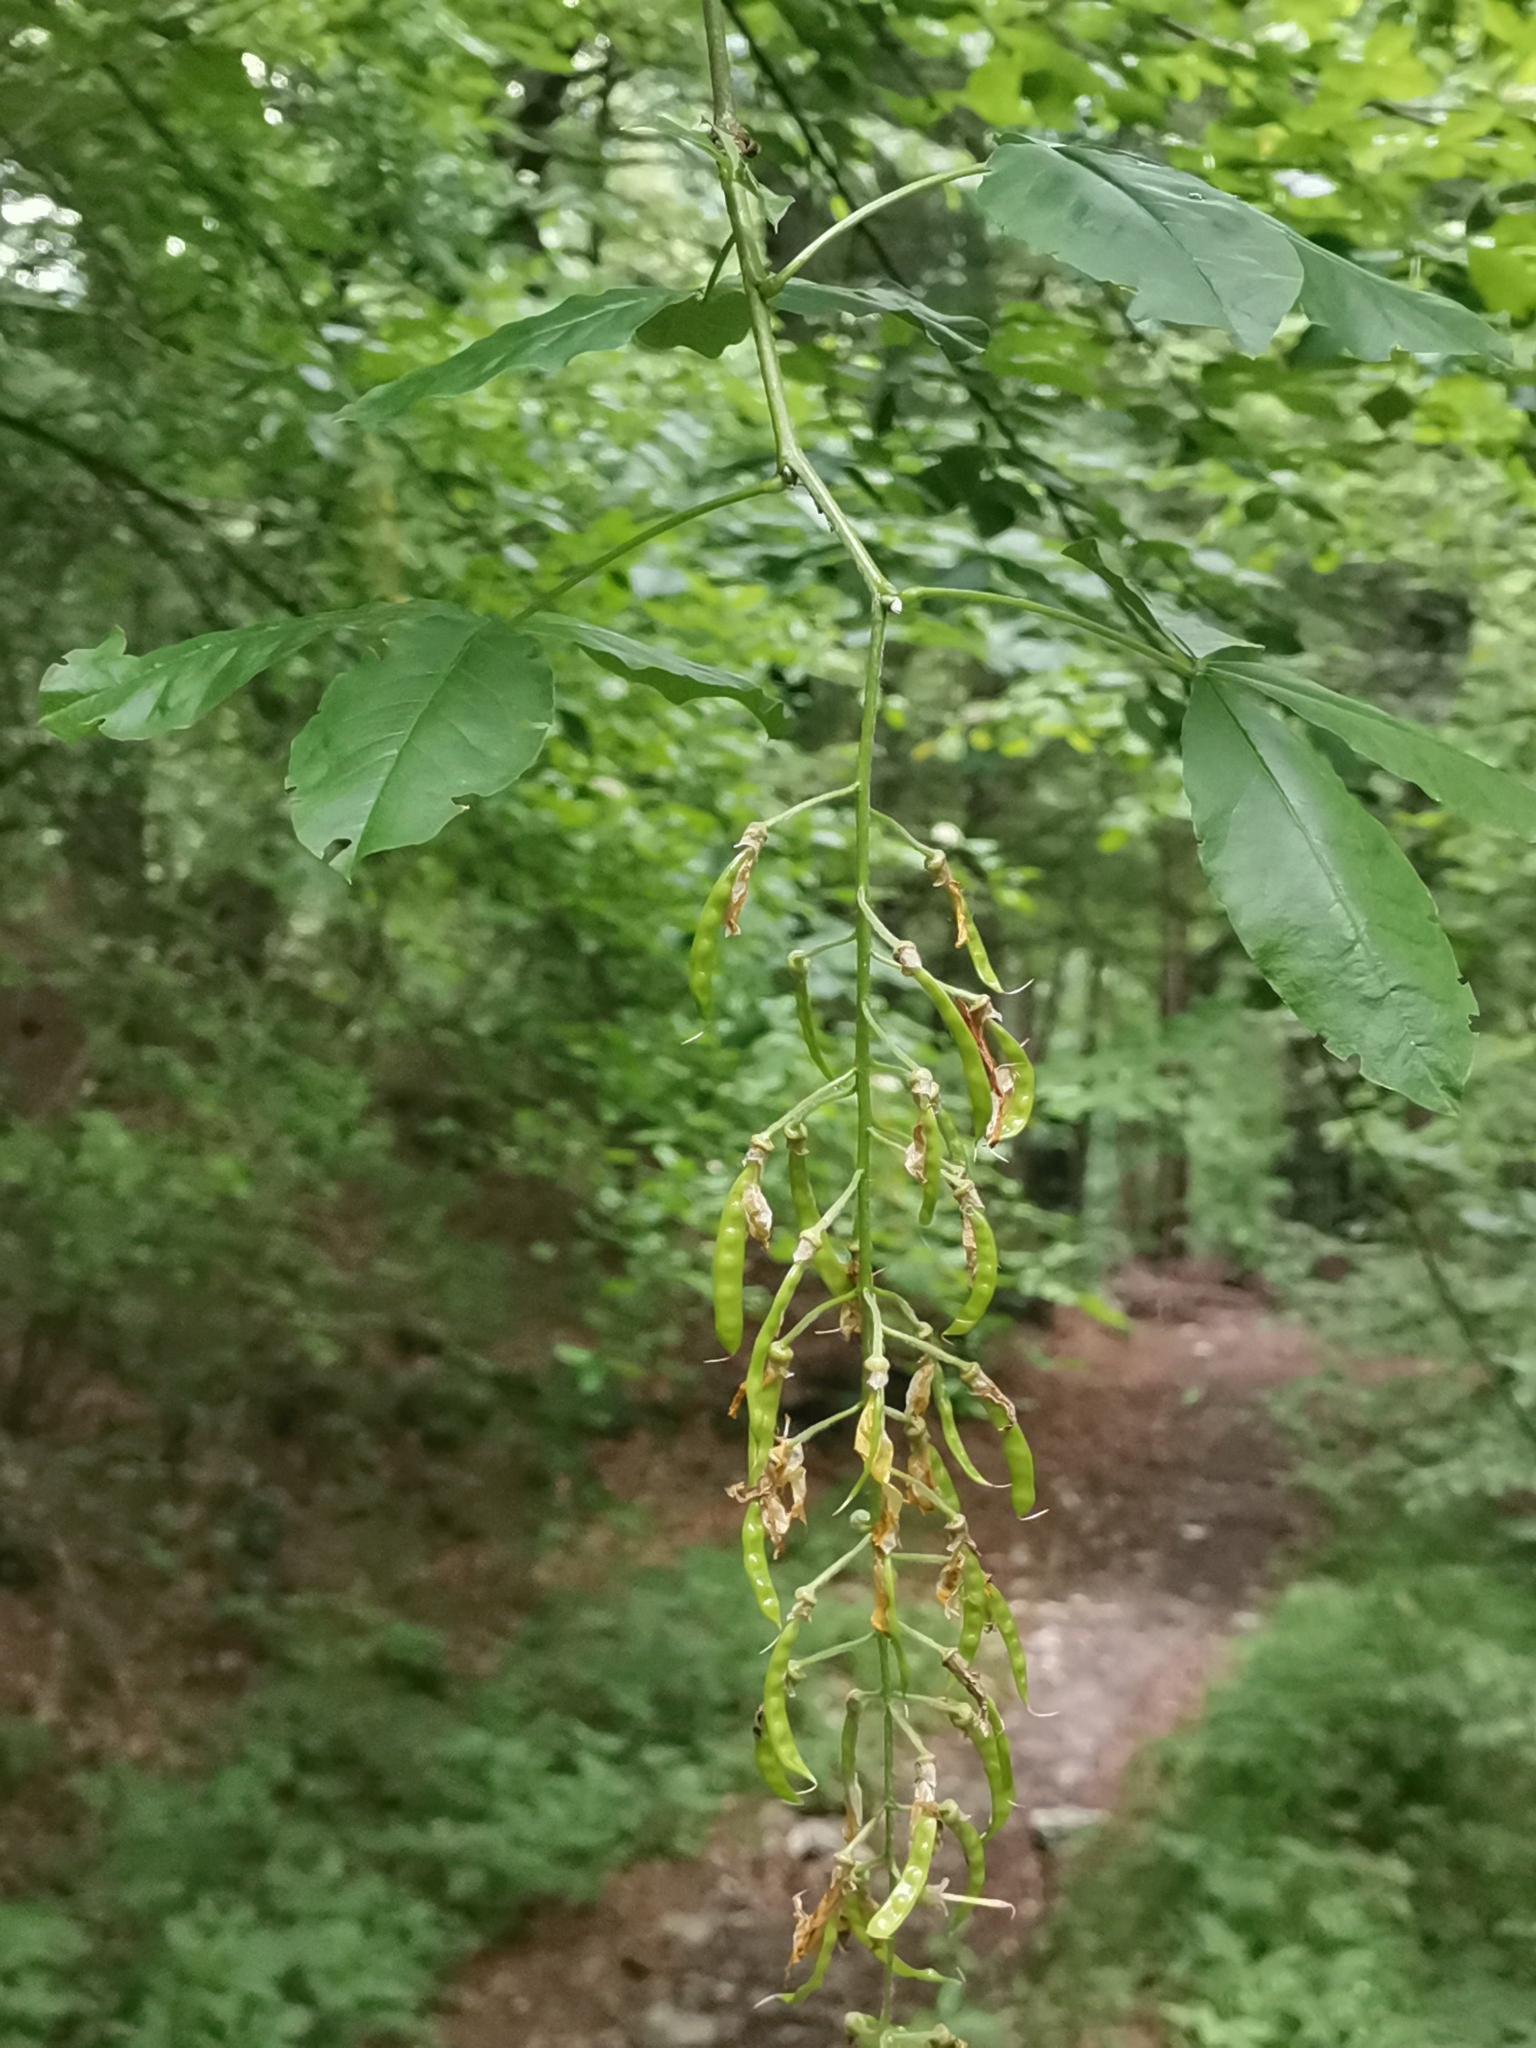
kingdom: Plantae
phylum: Tracheophyta
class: Magnoliopsida
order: Fabales
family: Fabaceae
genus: Laburnum
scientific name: Laburnum alpinum
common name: Scottish laburnum
